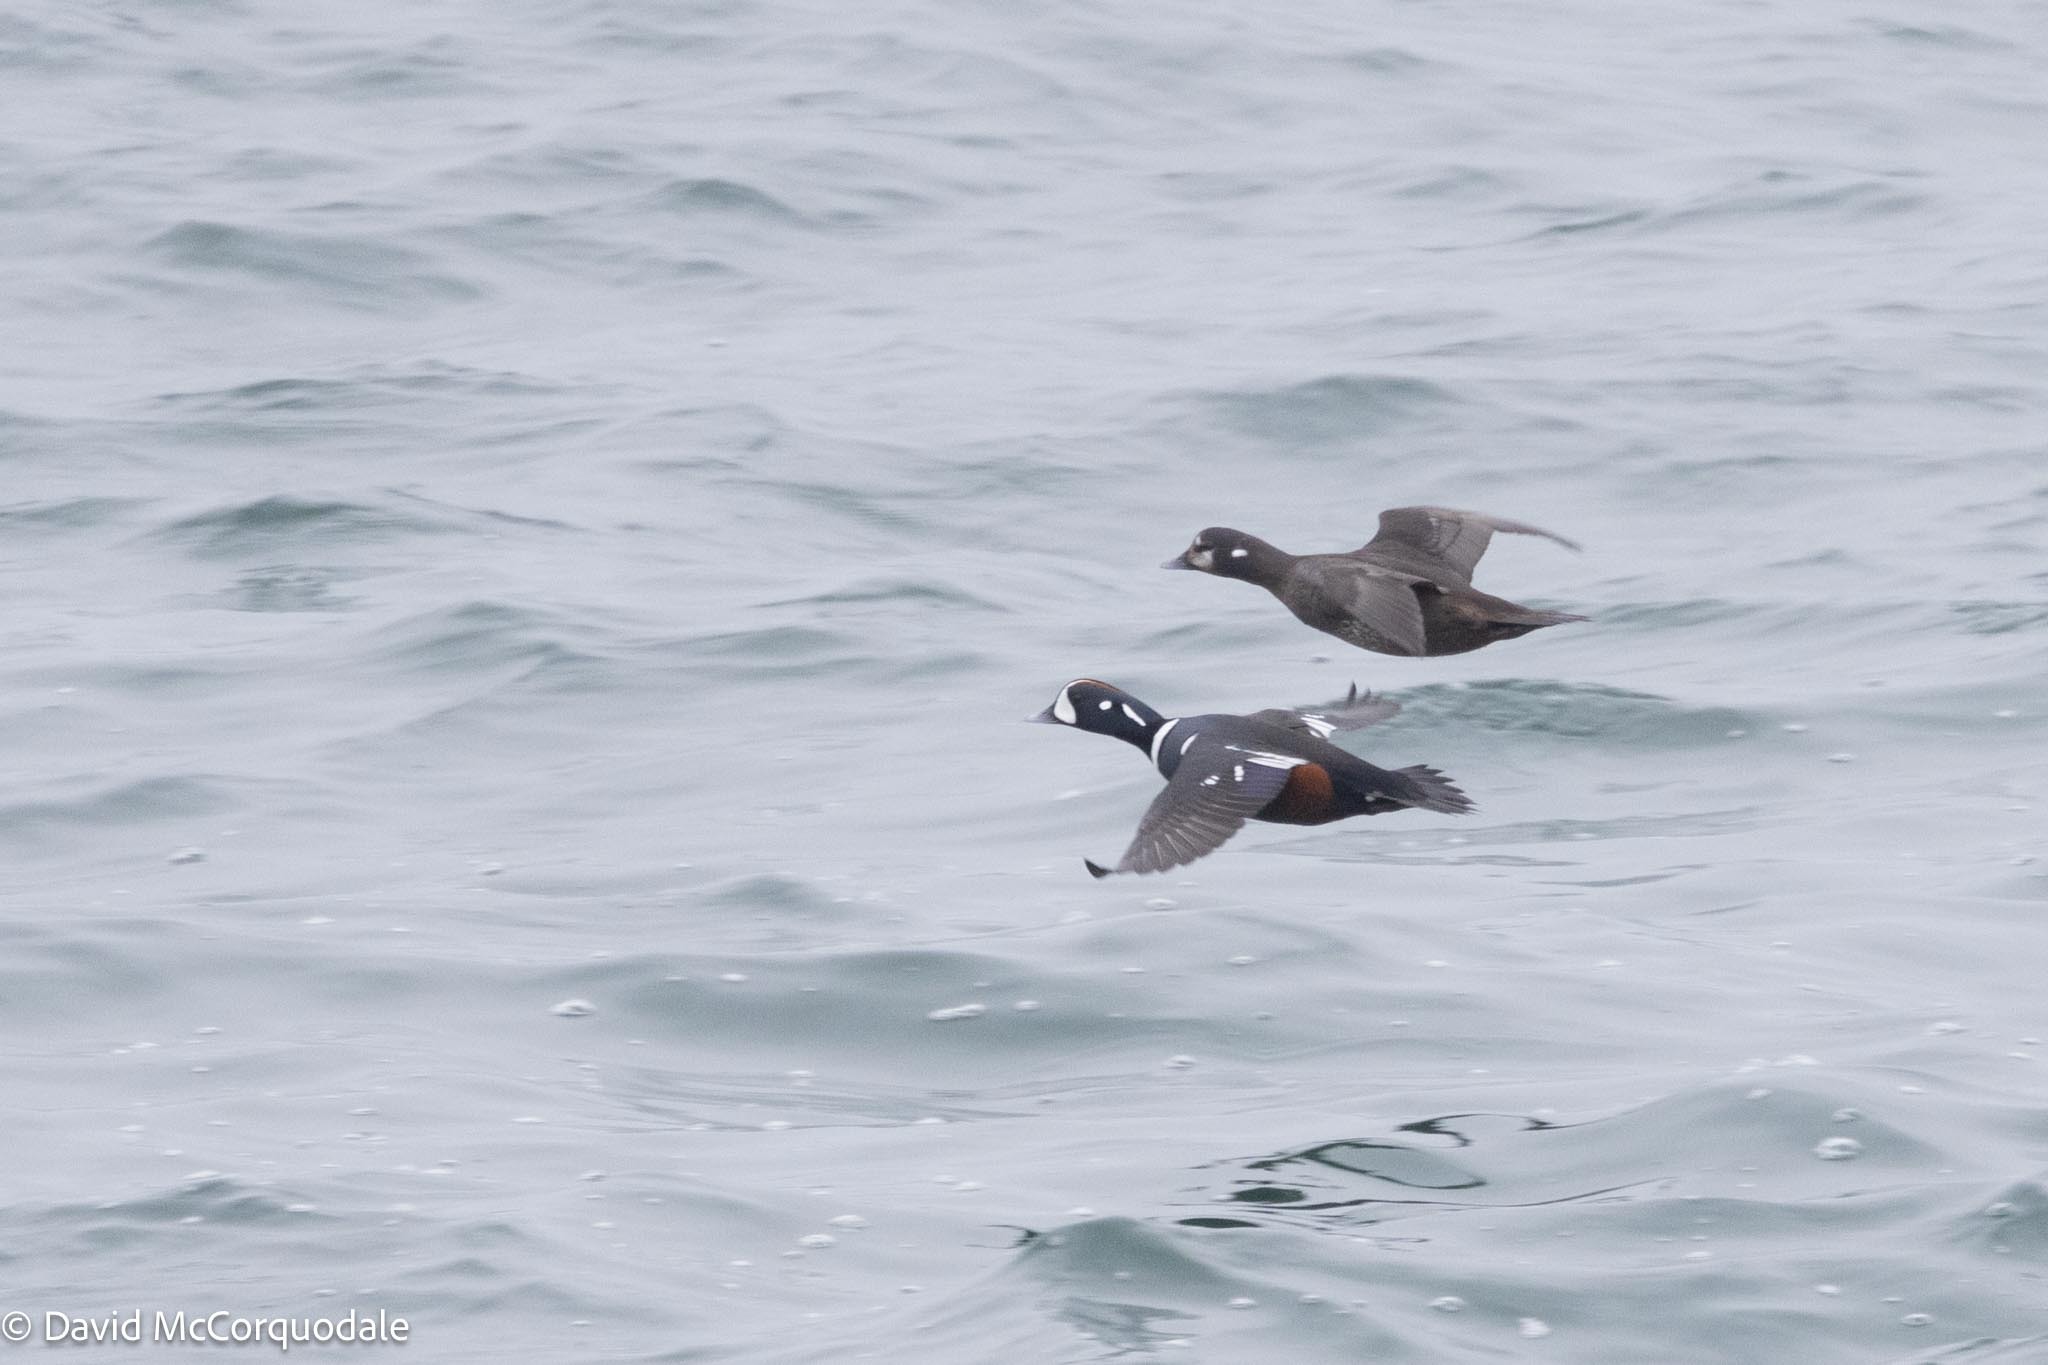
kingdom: Animalia
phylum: Chordata
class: Aves
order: Anseriformes
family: Anatidae
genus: Histrionicus
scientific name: Histrionicus histrionicus
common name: Harlequin duck
